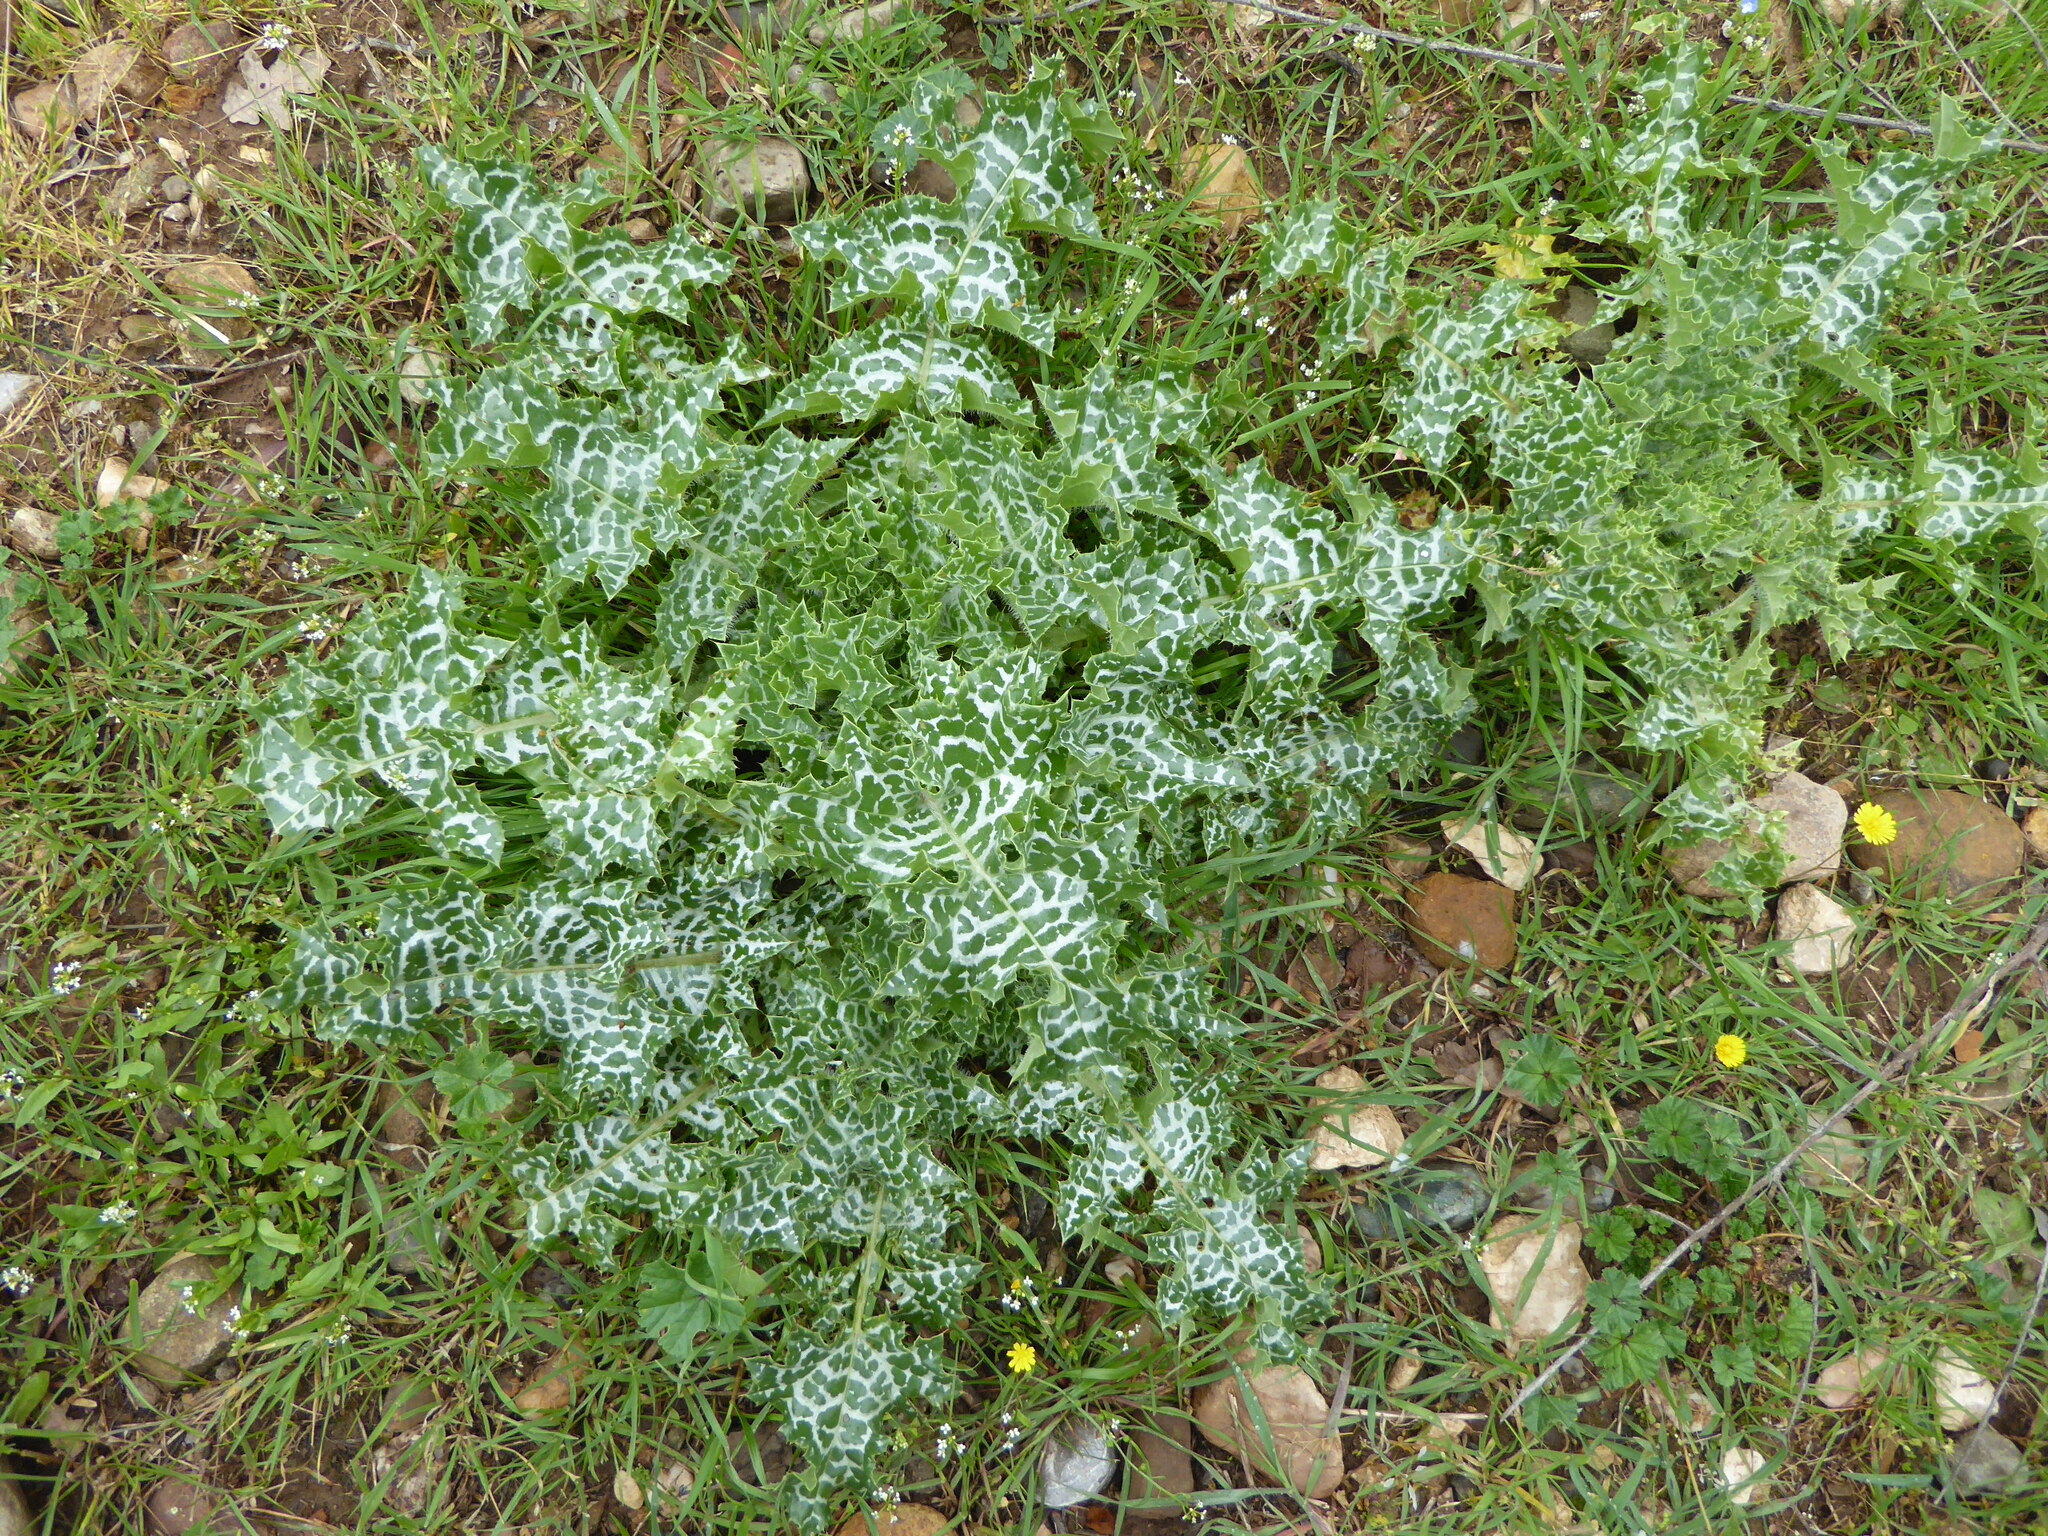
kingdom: Plantae
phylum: Tracheophyta
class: Magnoliopsida
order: Asterales
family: Asteraceae
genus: Silybum
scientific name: Silybum marianum
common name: Milk thistle
